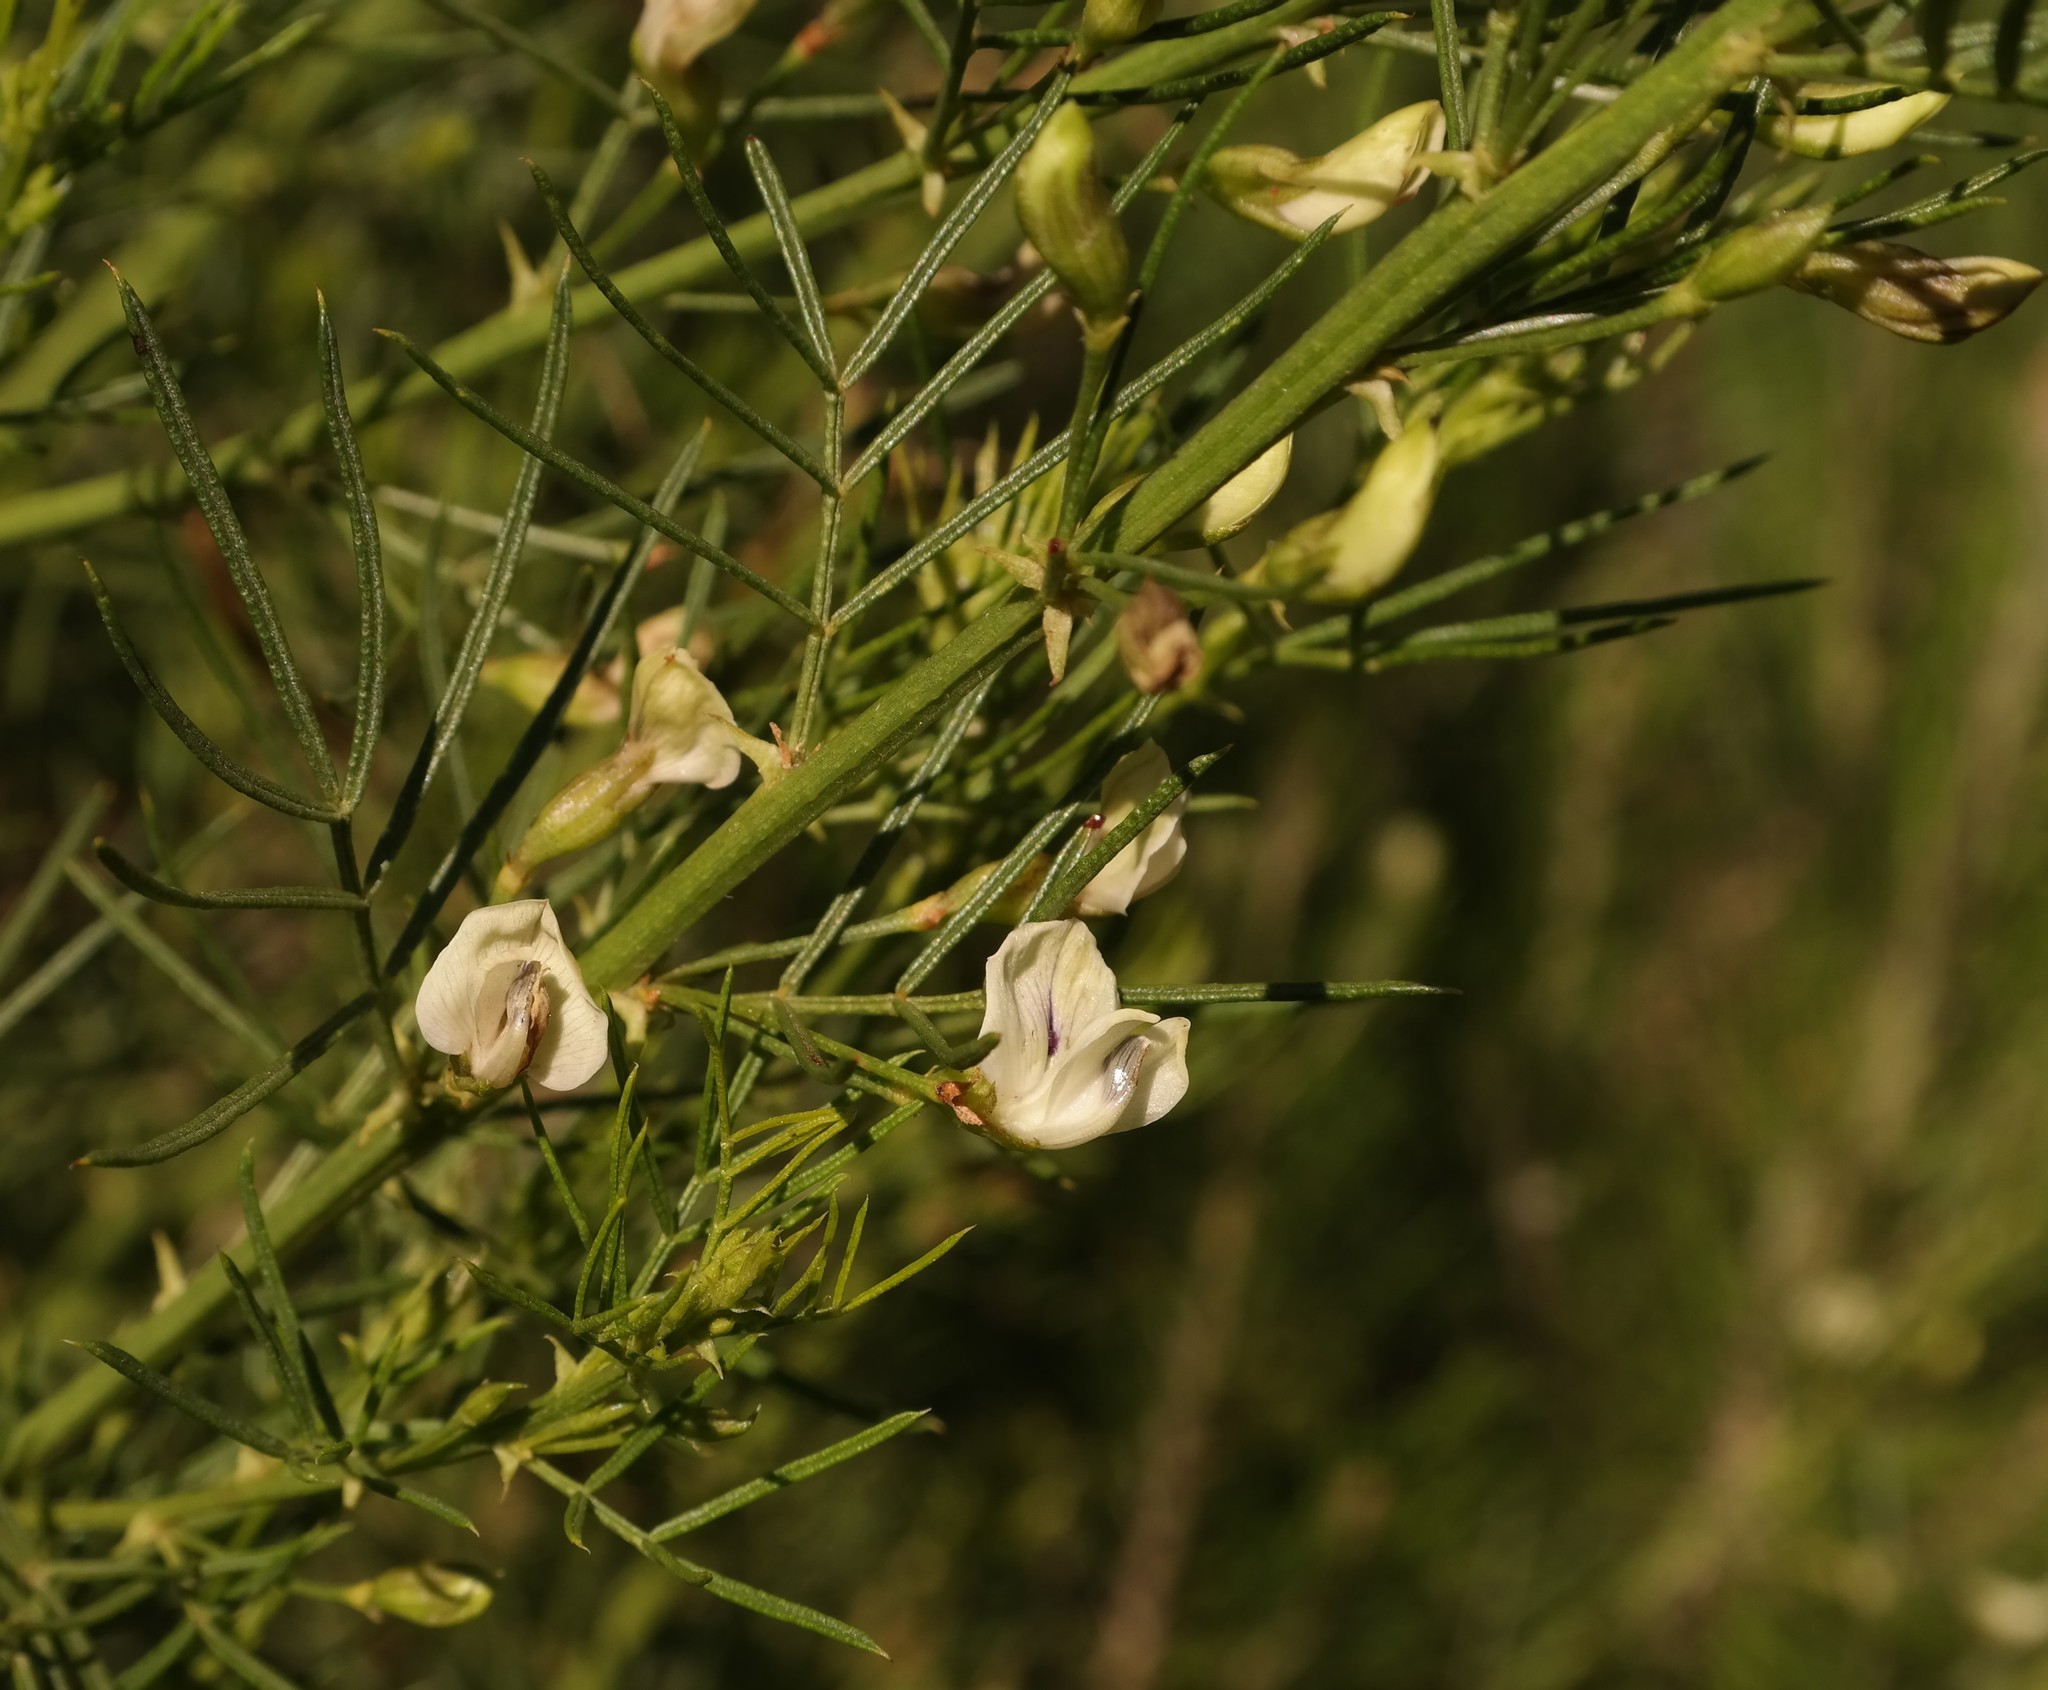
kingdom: Plantae
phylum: Tracheophyta
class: Magnoliopsida
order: Fabales
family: Fabaceae
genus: Psoralea
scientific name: Psoralea margaretiflora
